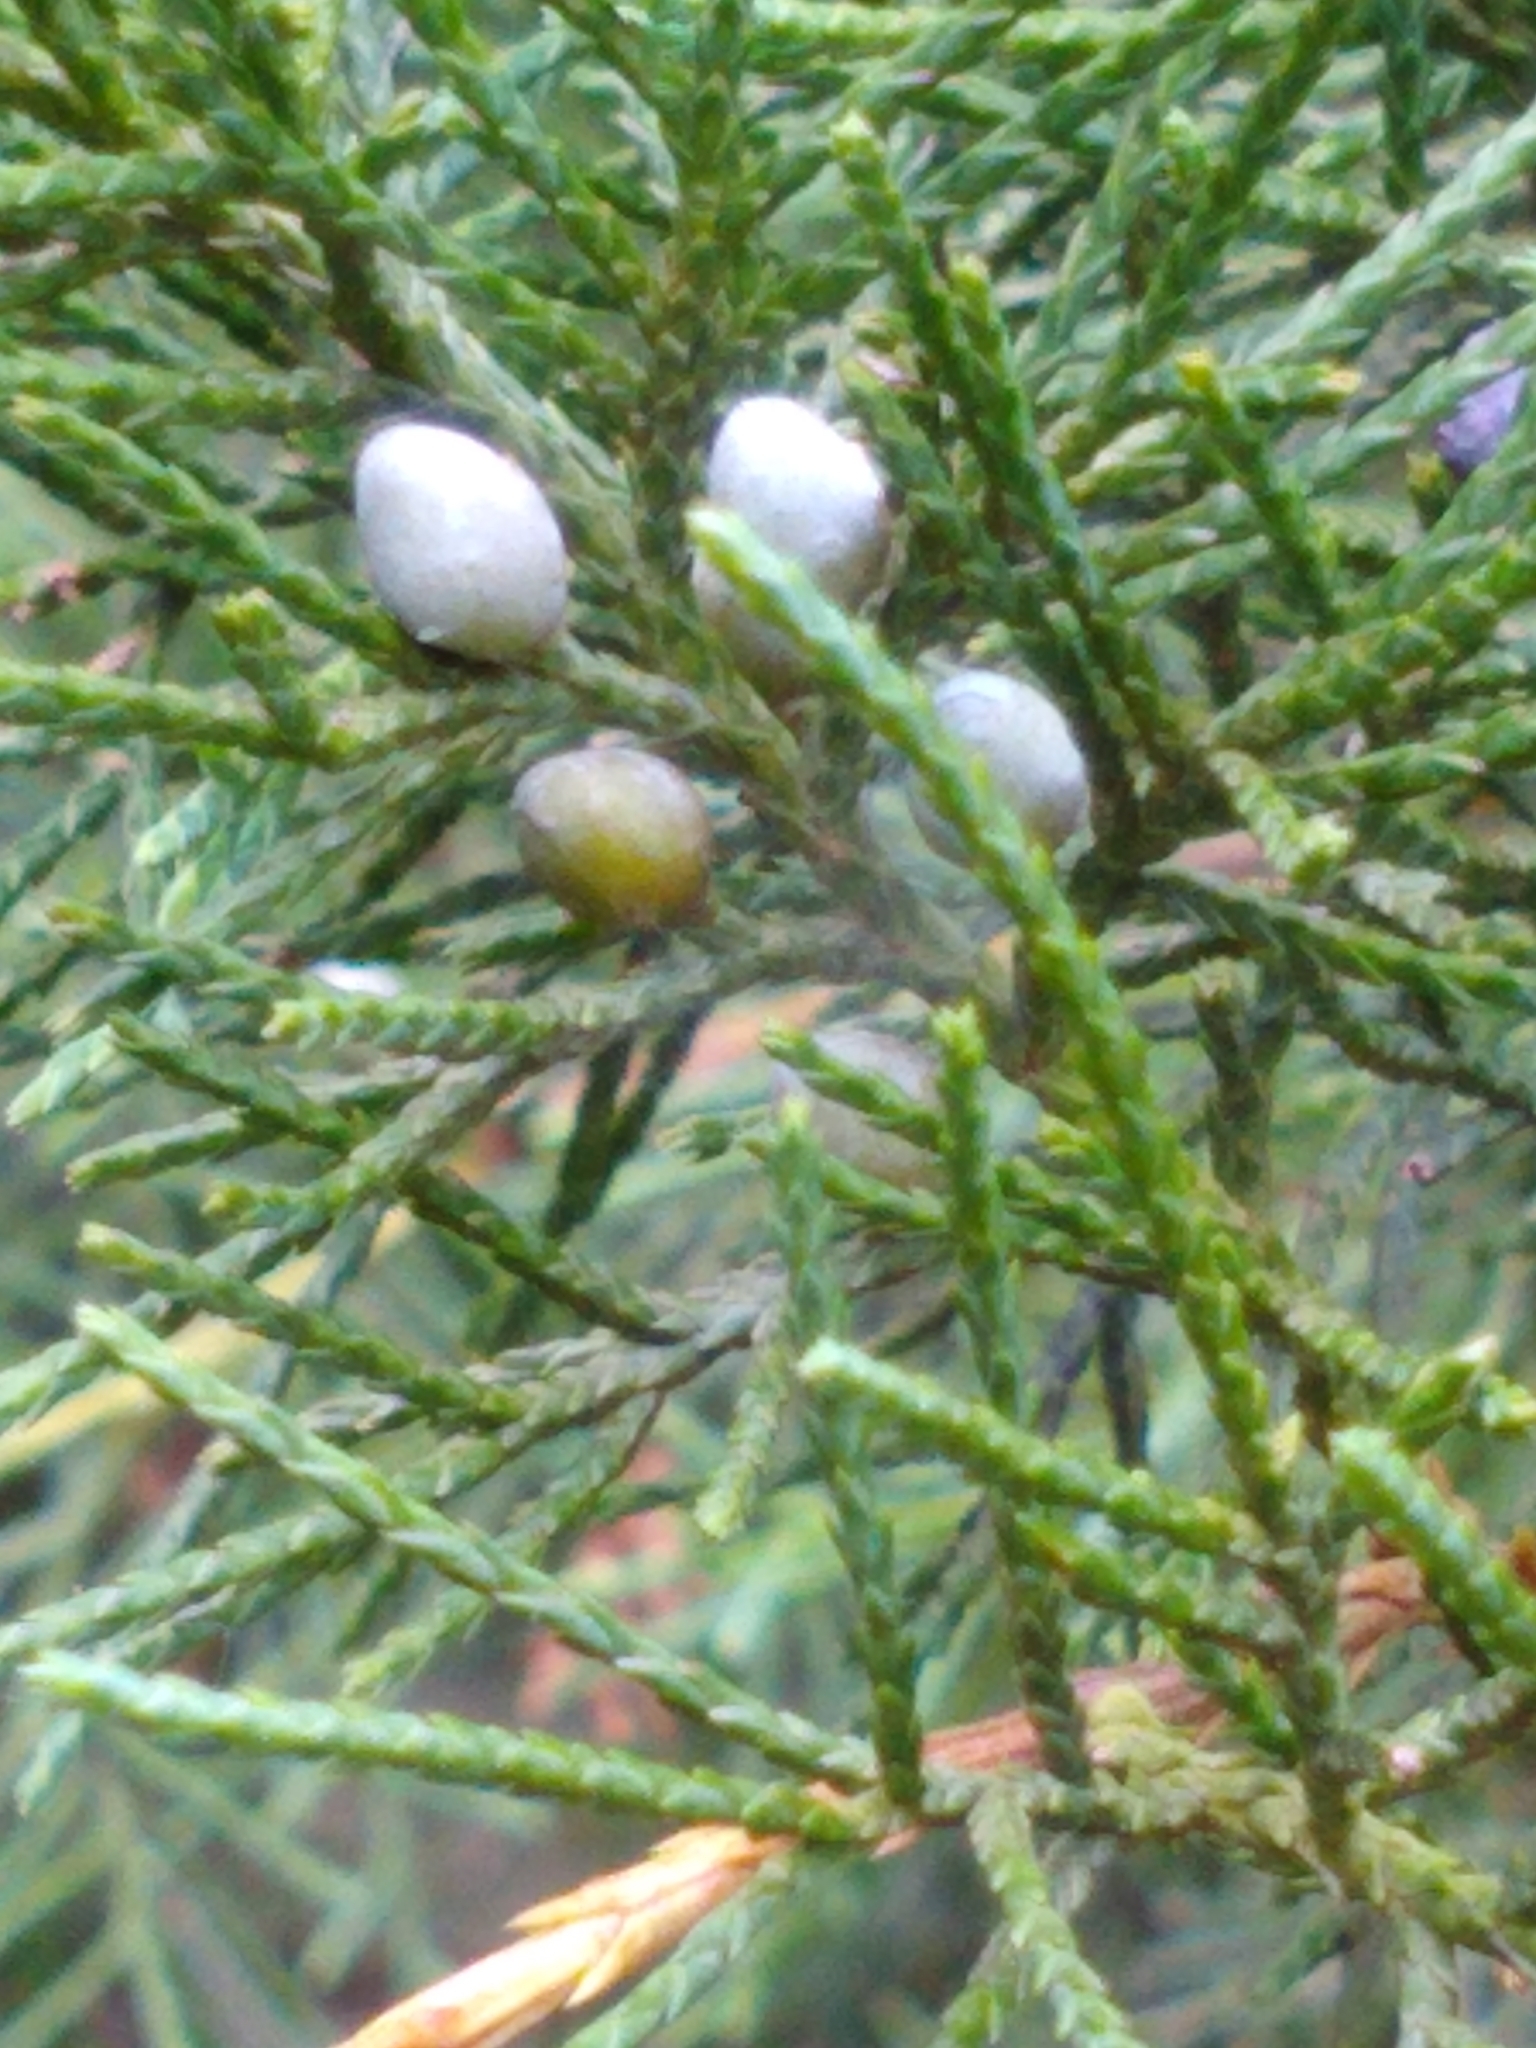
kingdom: Plantae
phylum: Tracheophyta
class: Pinopsida
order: Pinales
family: Cupressaceae
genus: Juniperus
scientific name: Juniperus virginiana
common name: Red juniper
